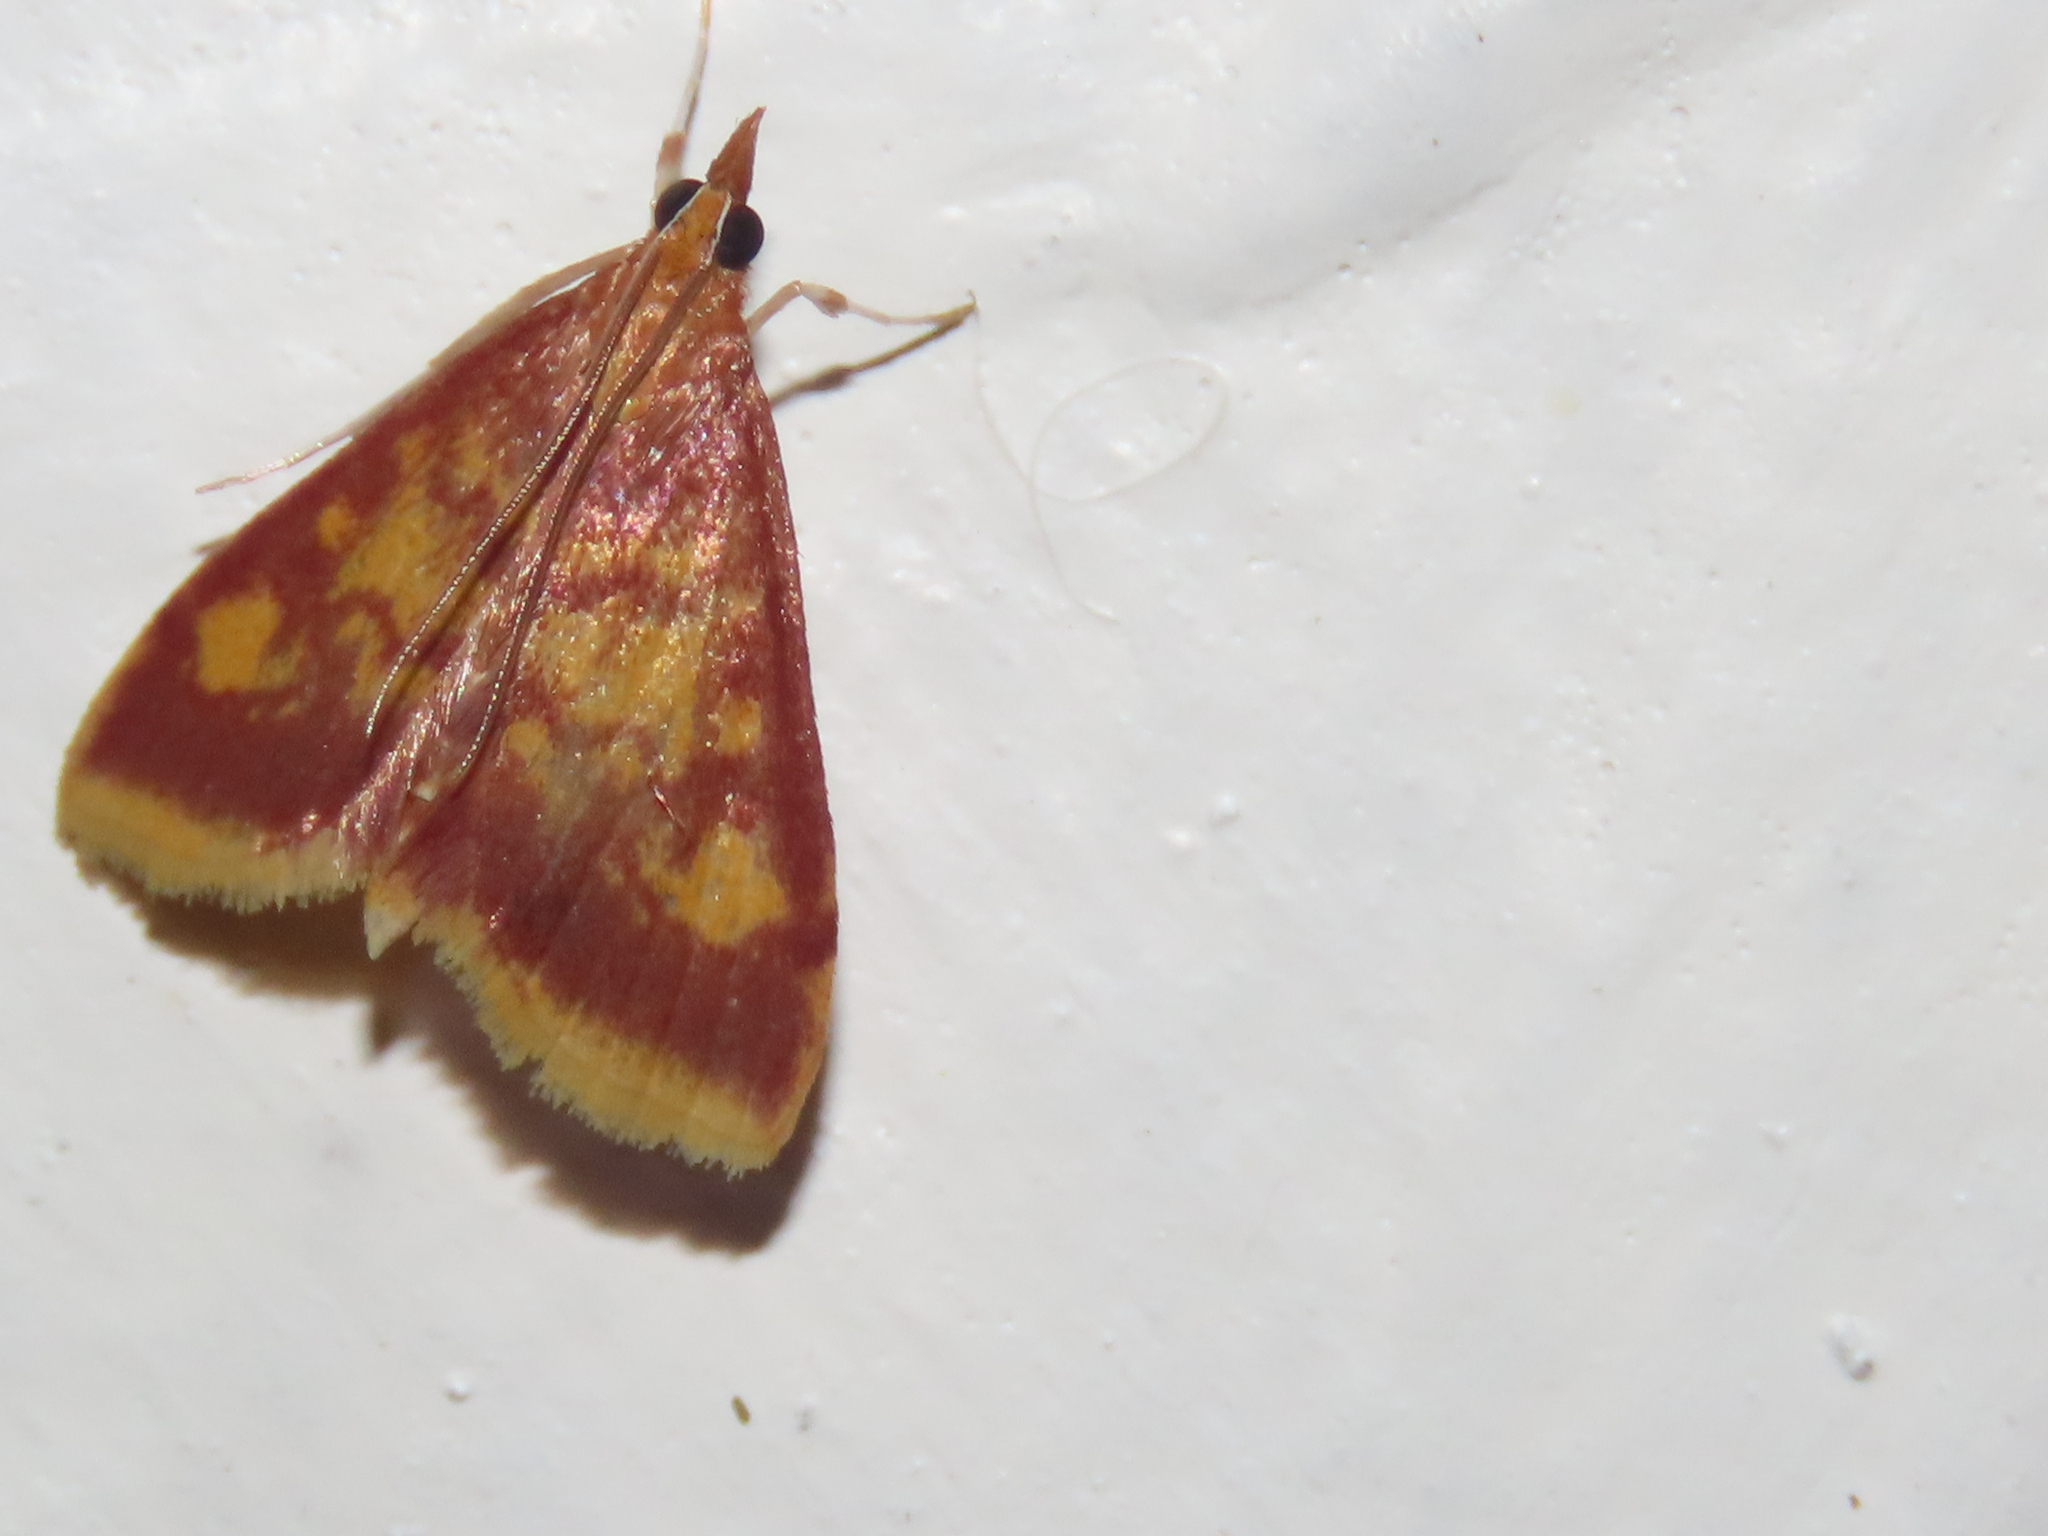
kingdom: Animalia
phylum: Arthropoda
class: Insecta
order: Lepidoptera
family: Crambidae
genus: Pyrausta
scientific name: Pyrausta acrionalis
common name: Mint-loving pyrausta moth
